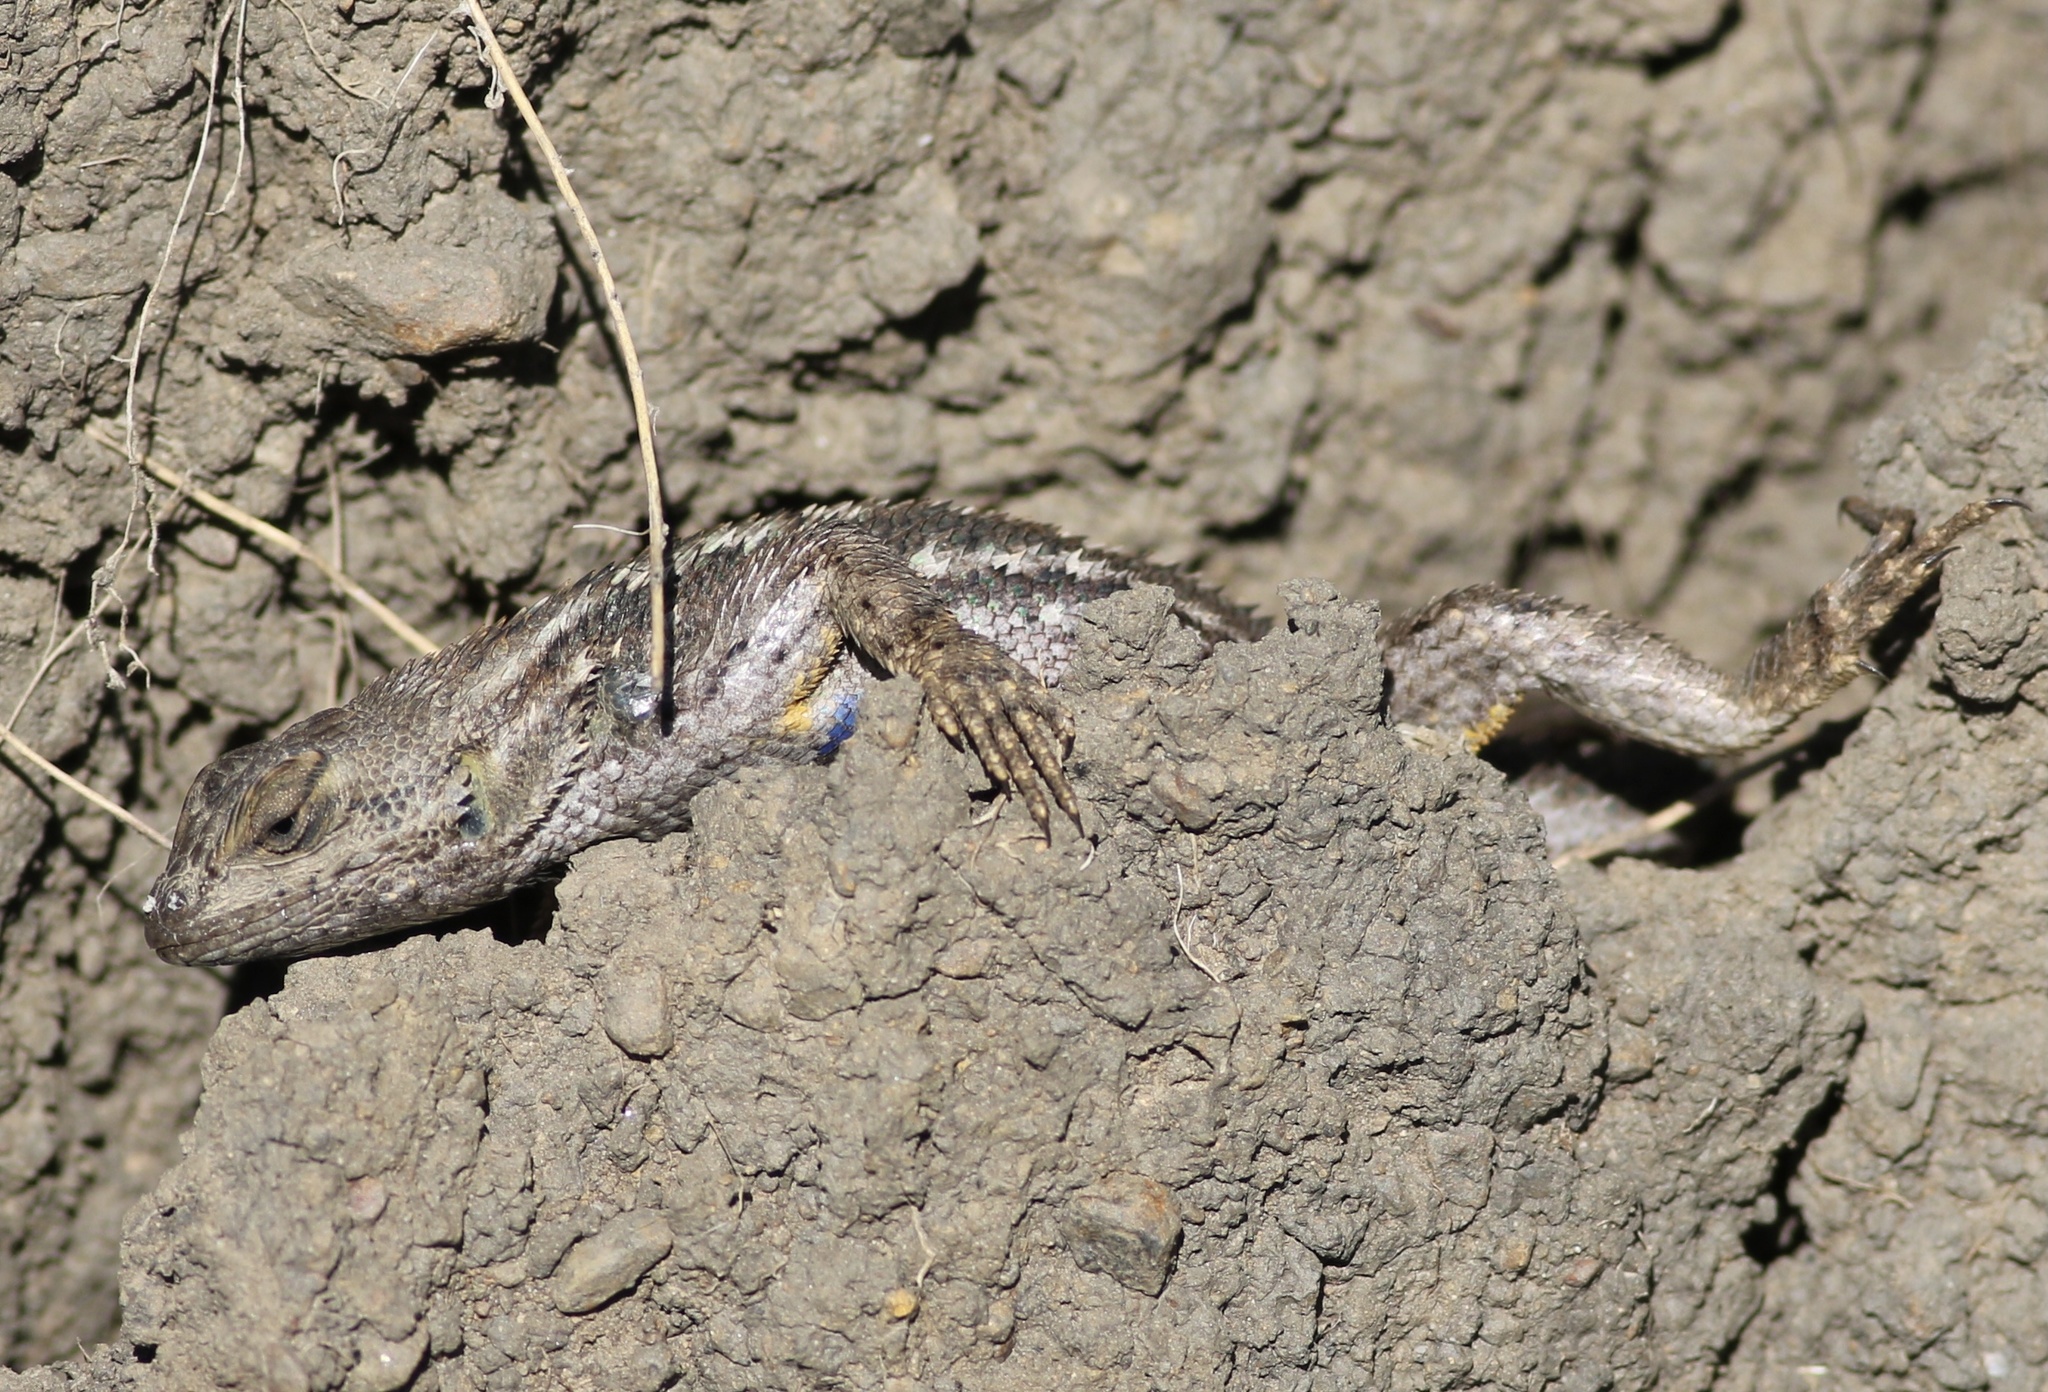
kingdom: Animalia
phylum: Chordata
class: Squamata
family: Phrynosomatidae
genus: Sceloporus
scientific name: Sceloporus occidentalis
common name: Western fence lizard
